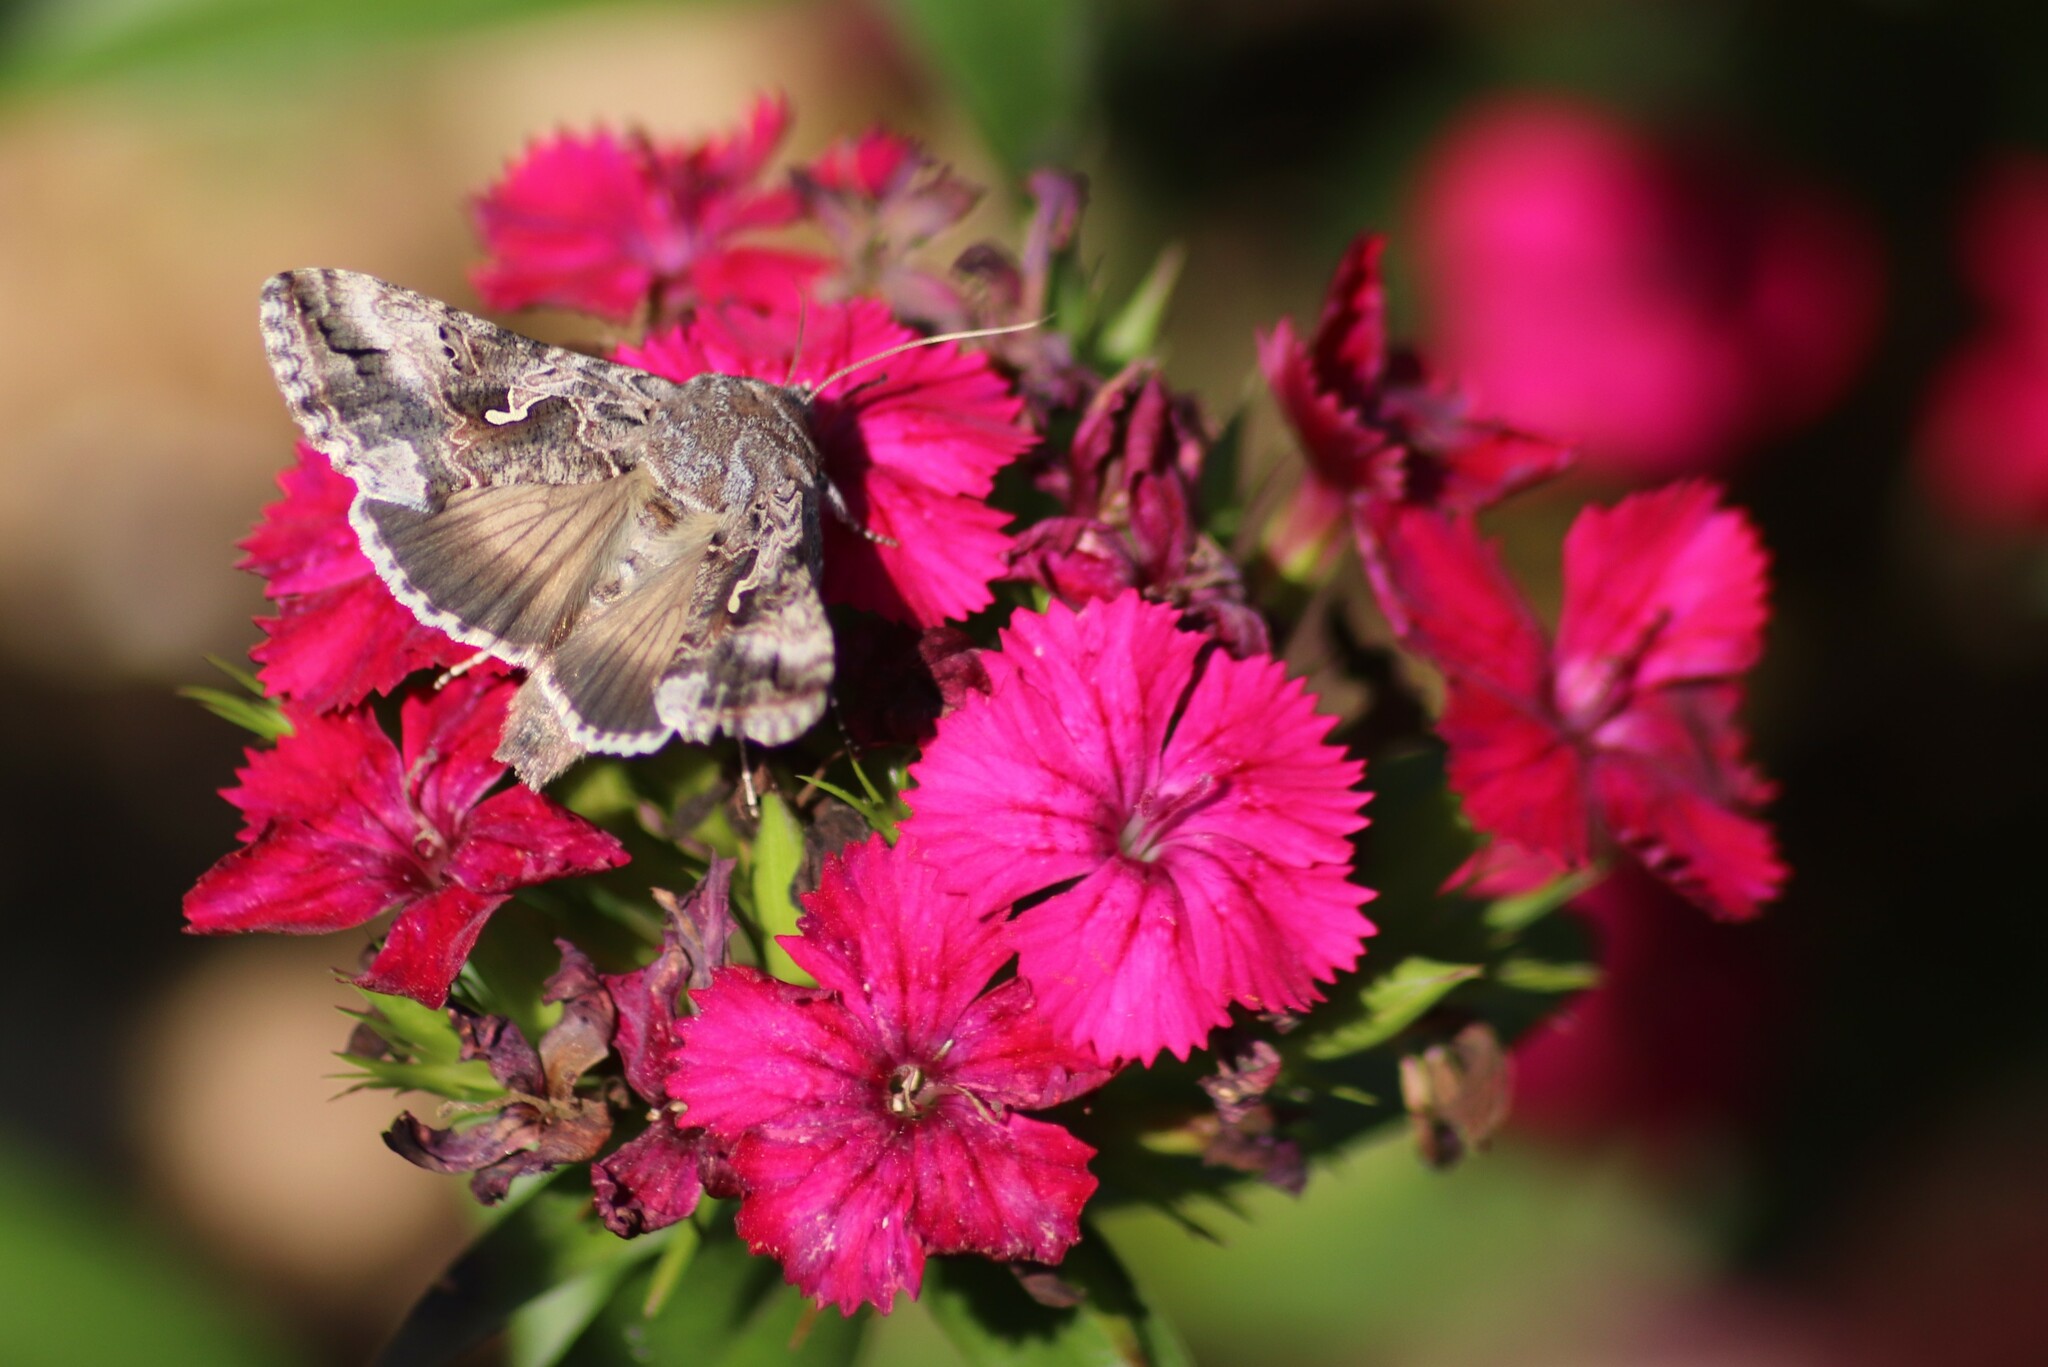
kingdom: Animalia
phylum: Arthropoda
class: Insecta
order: Lepidoptera
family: Noctuidae
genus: Autographa
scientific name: Autographa californica
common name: Alfalfa looper
